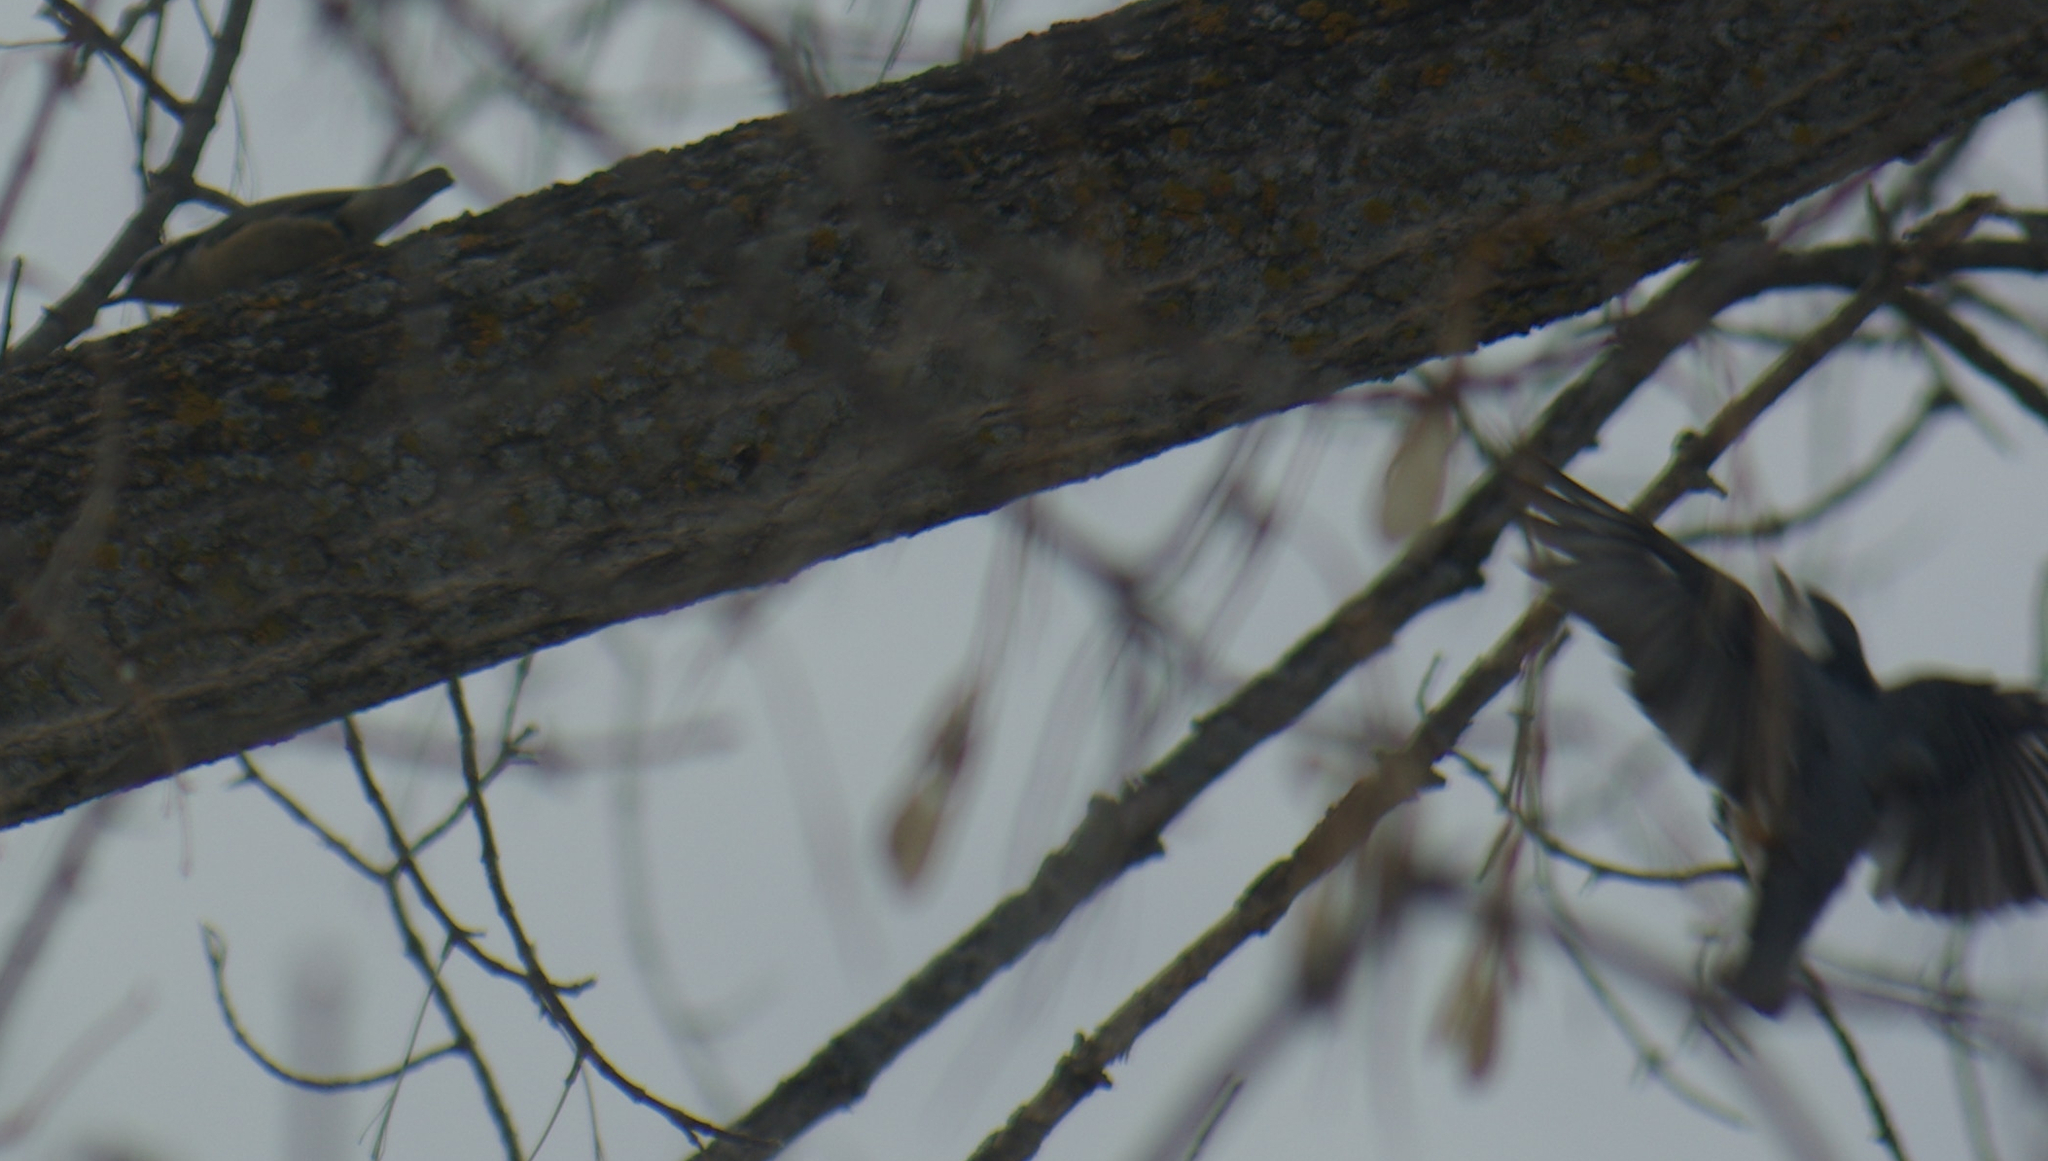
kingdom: Animalia
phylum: Chordata
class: Aves
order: Passeriformes
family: Sittidae
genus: Sitta
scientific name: Sitta canadensis
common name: Red-breasted nuthatch
